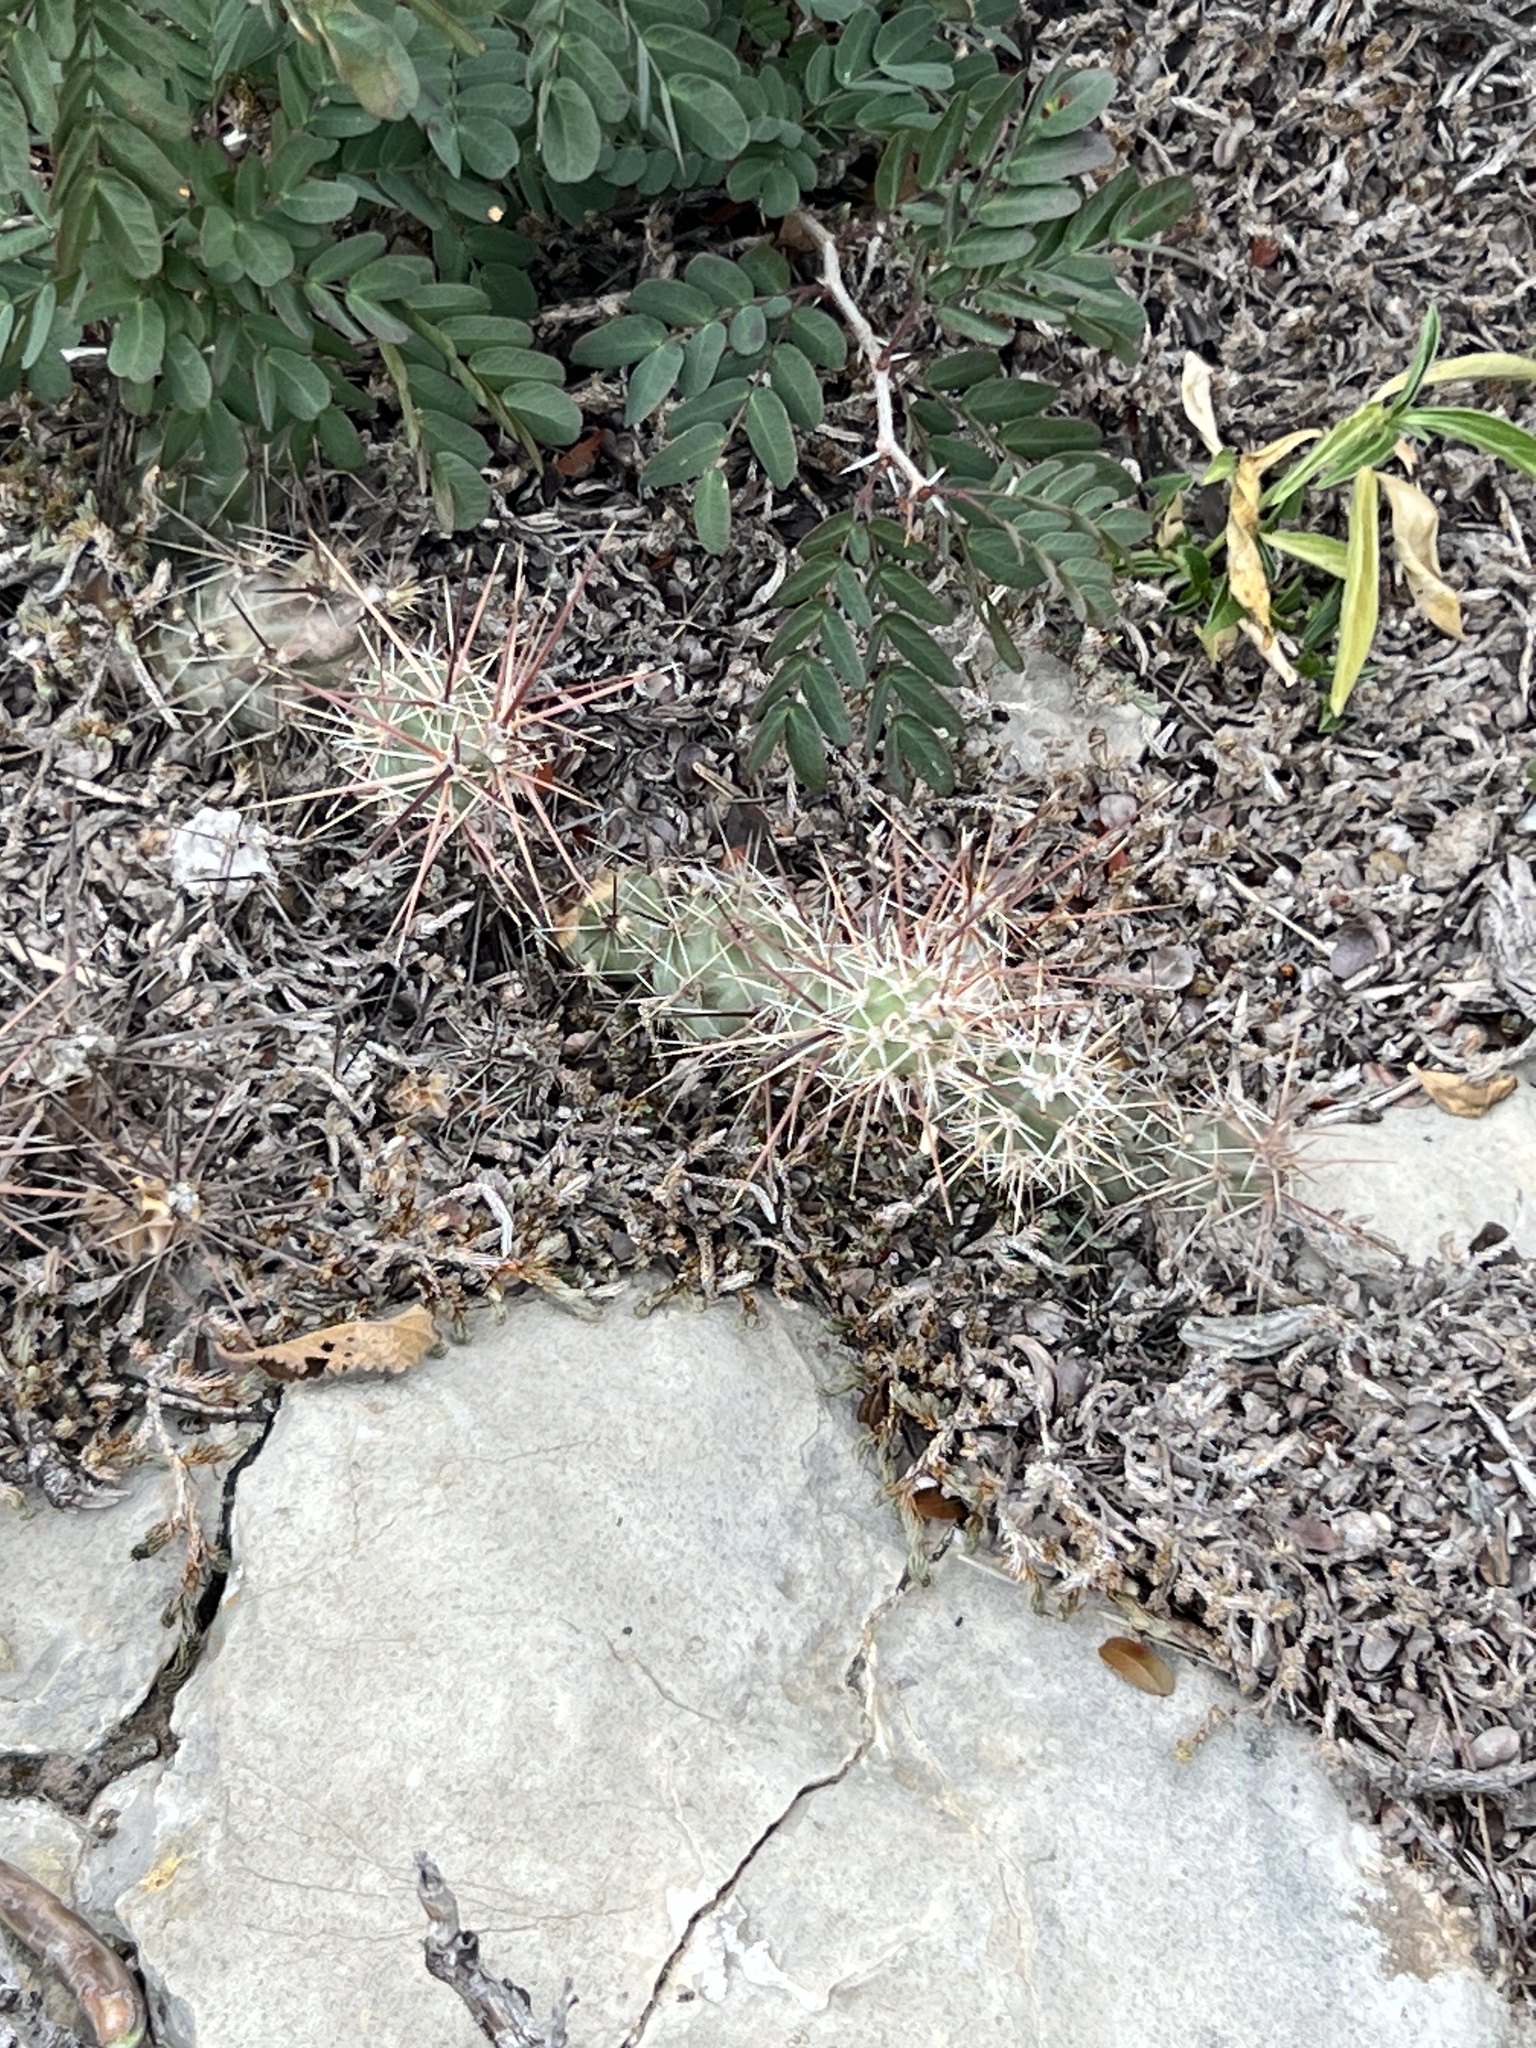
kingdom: Plantae
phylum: Tracheophyta
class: Magnoliopsida
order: Caryophyllales
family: Cactaceae
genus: Grusonia
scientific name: Grusonia schottii
